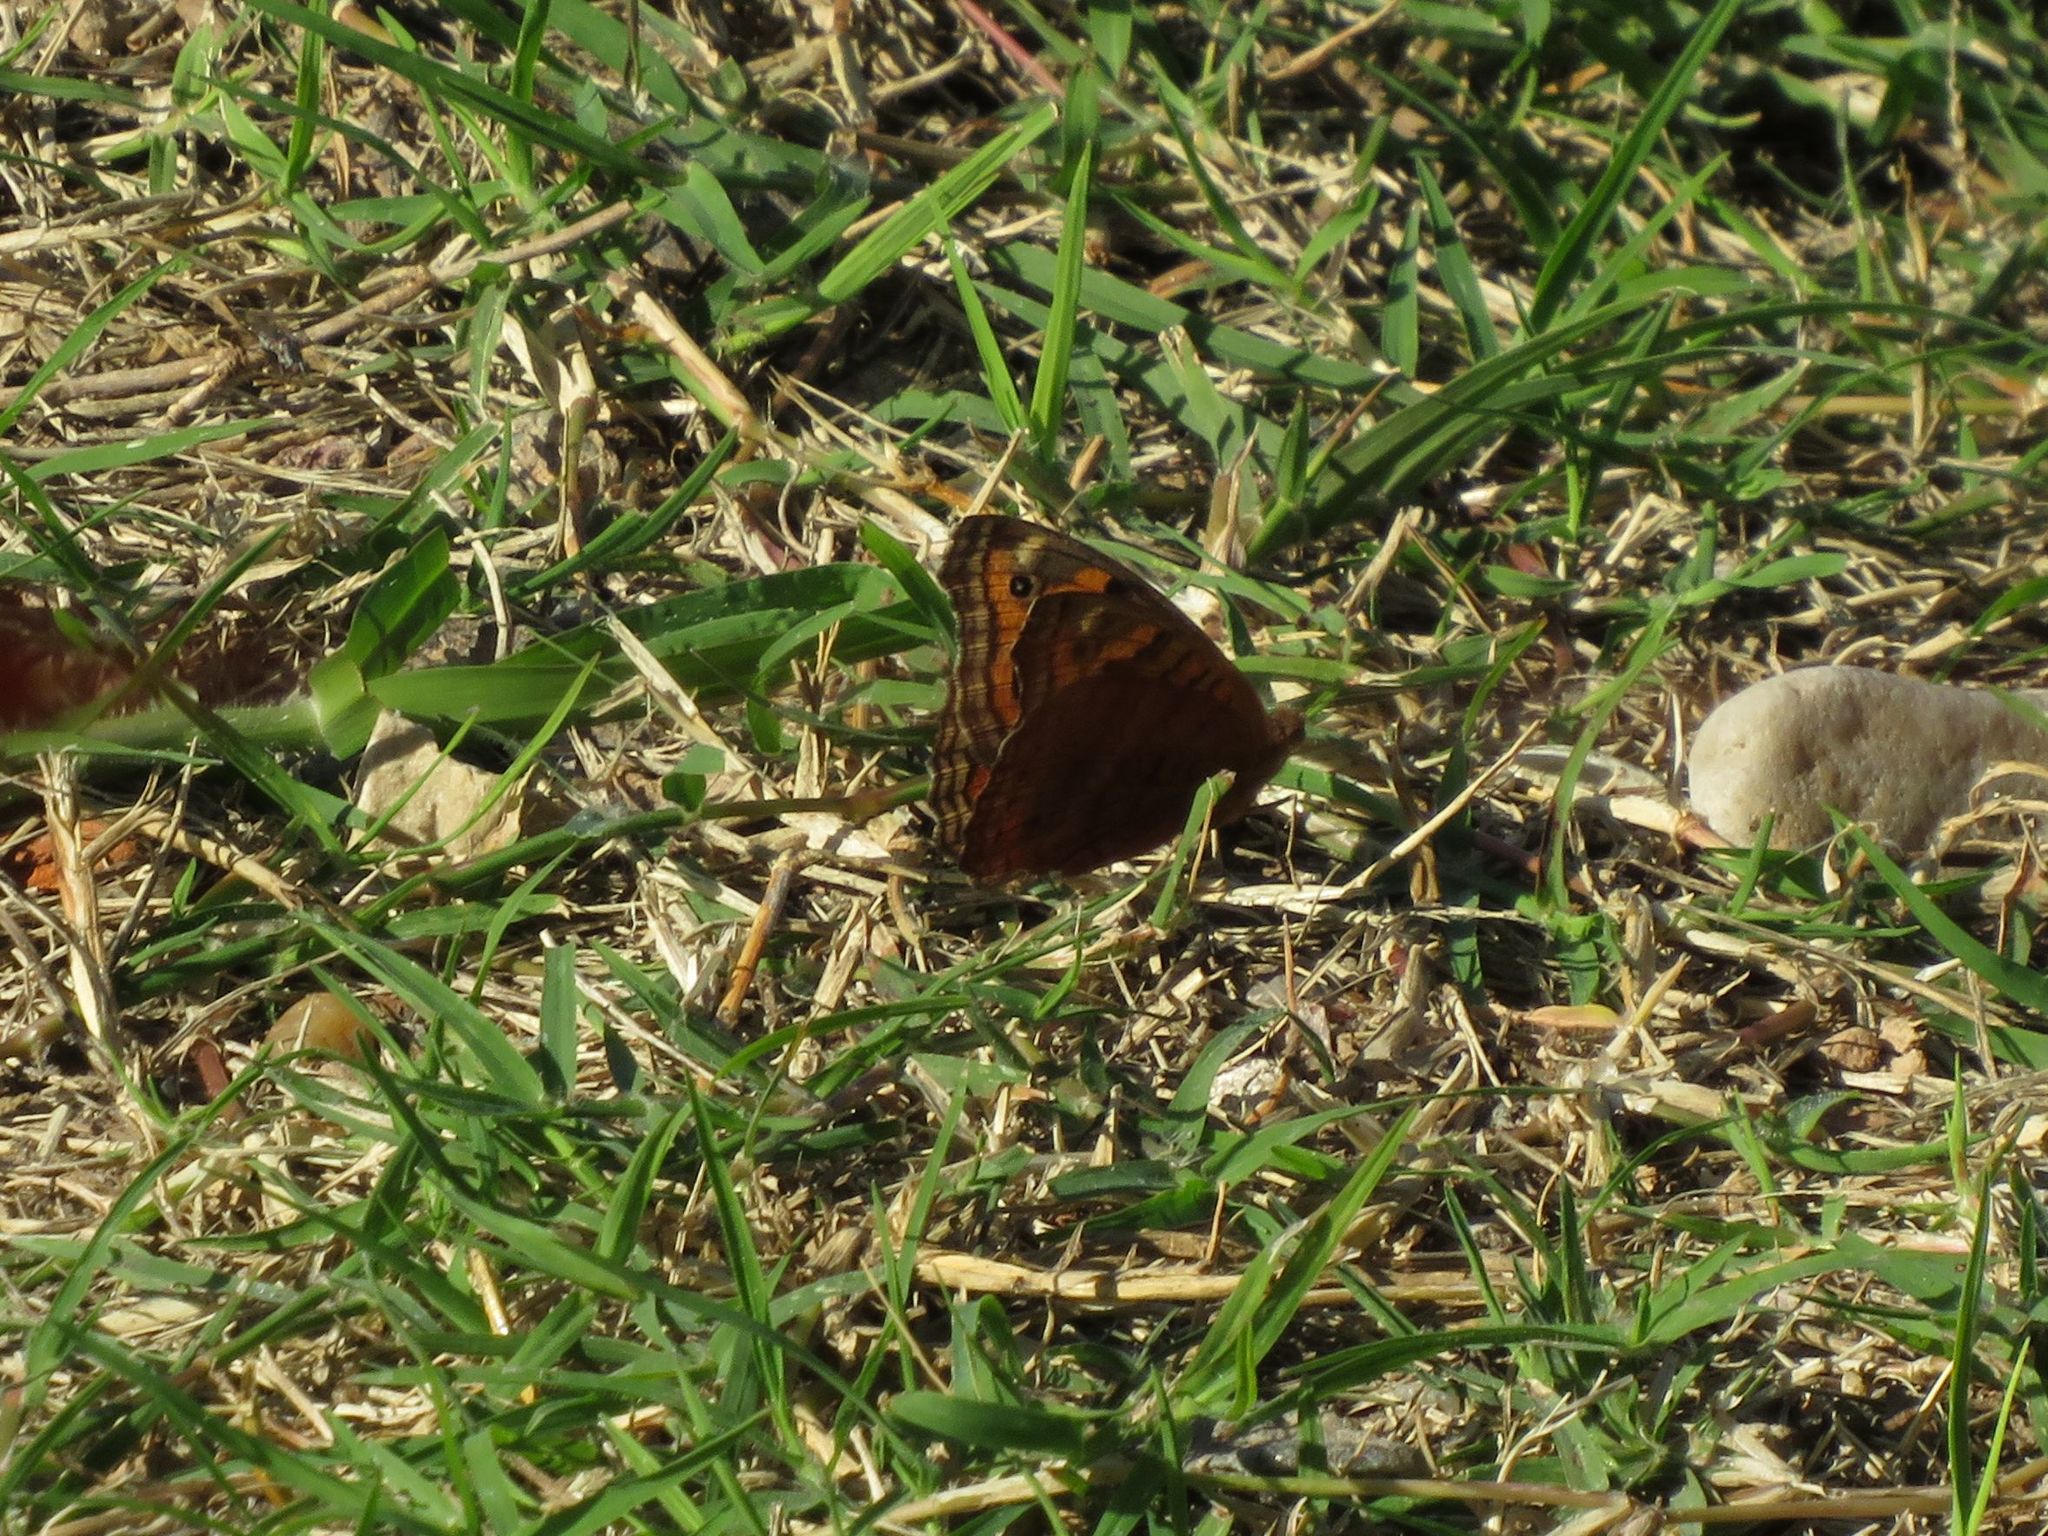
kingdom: Animalia
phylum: Arthropoda
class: Insecta
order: Lepidoptera
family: Nymphalidae
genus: Junonia
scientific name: Junonia lavinia
